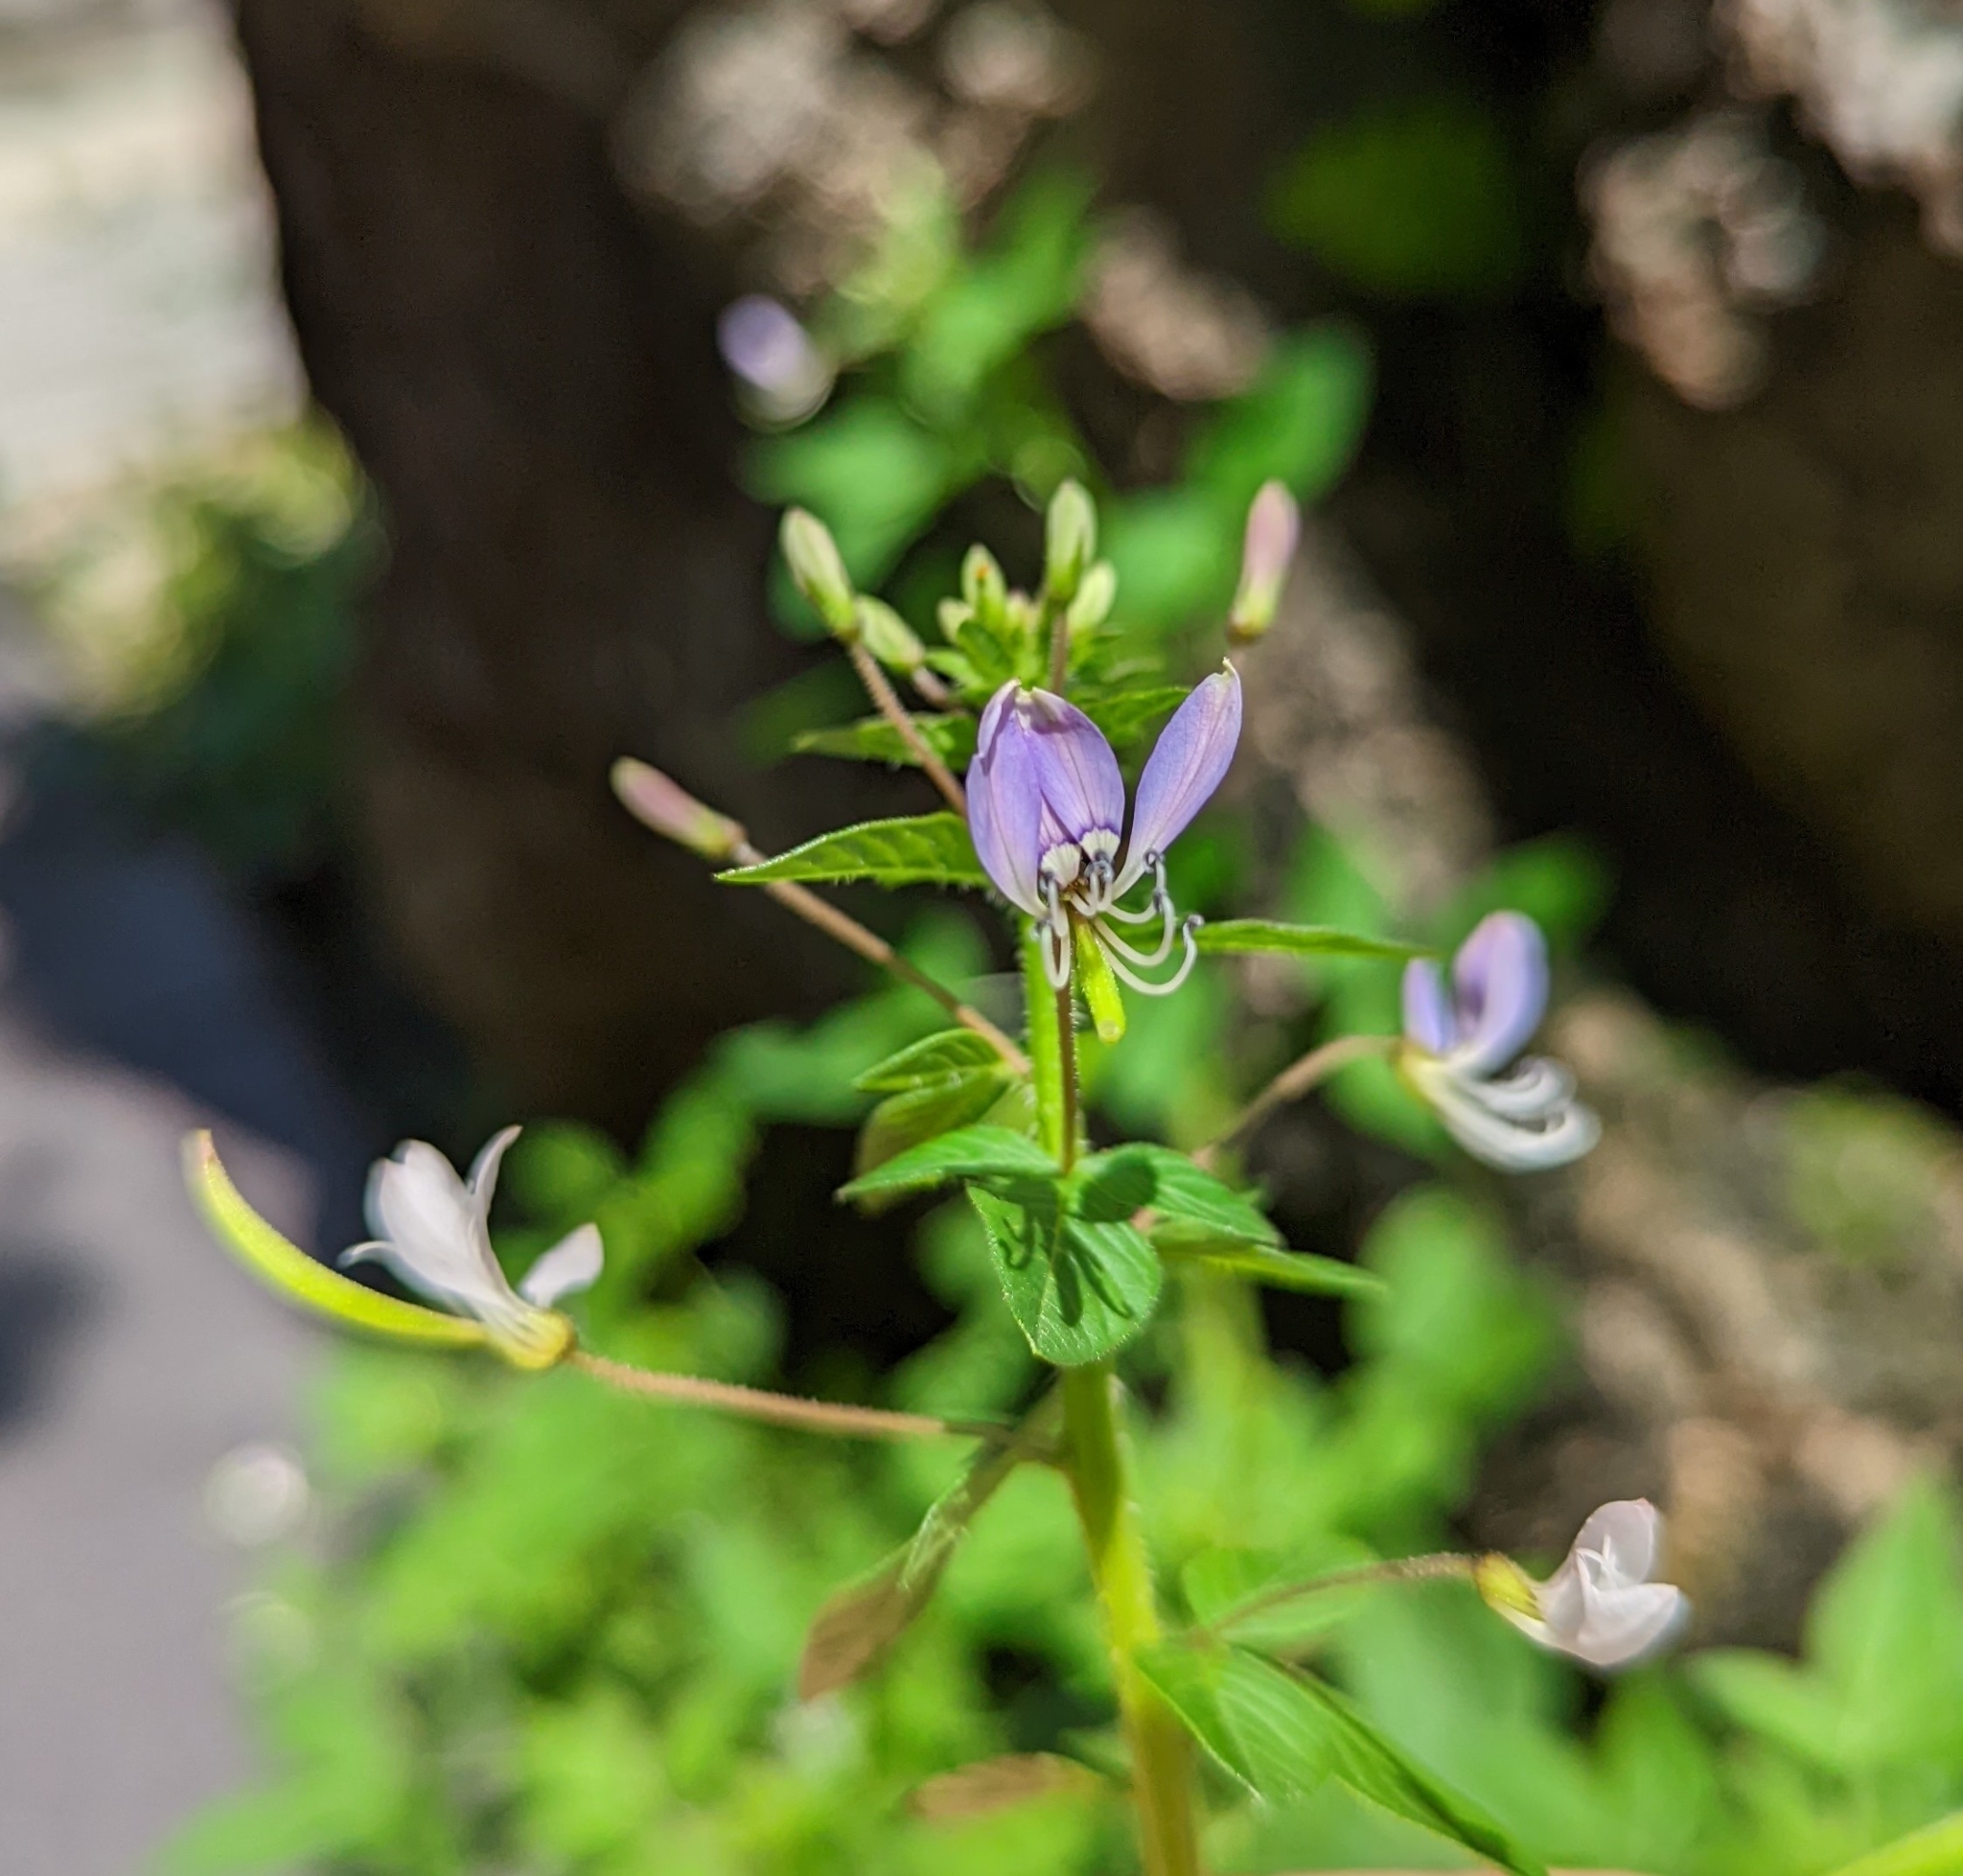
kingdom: Plantae
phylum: Tracheophyta
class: Magnoliopsida
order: Brassicales
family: Cleomaceae
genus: Sieruela
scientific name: Sieruela rutidosperma
